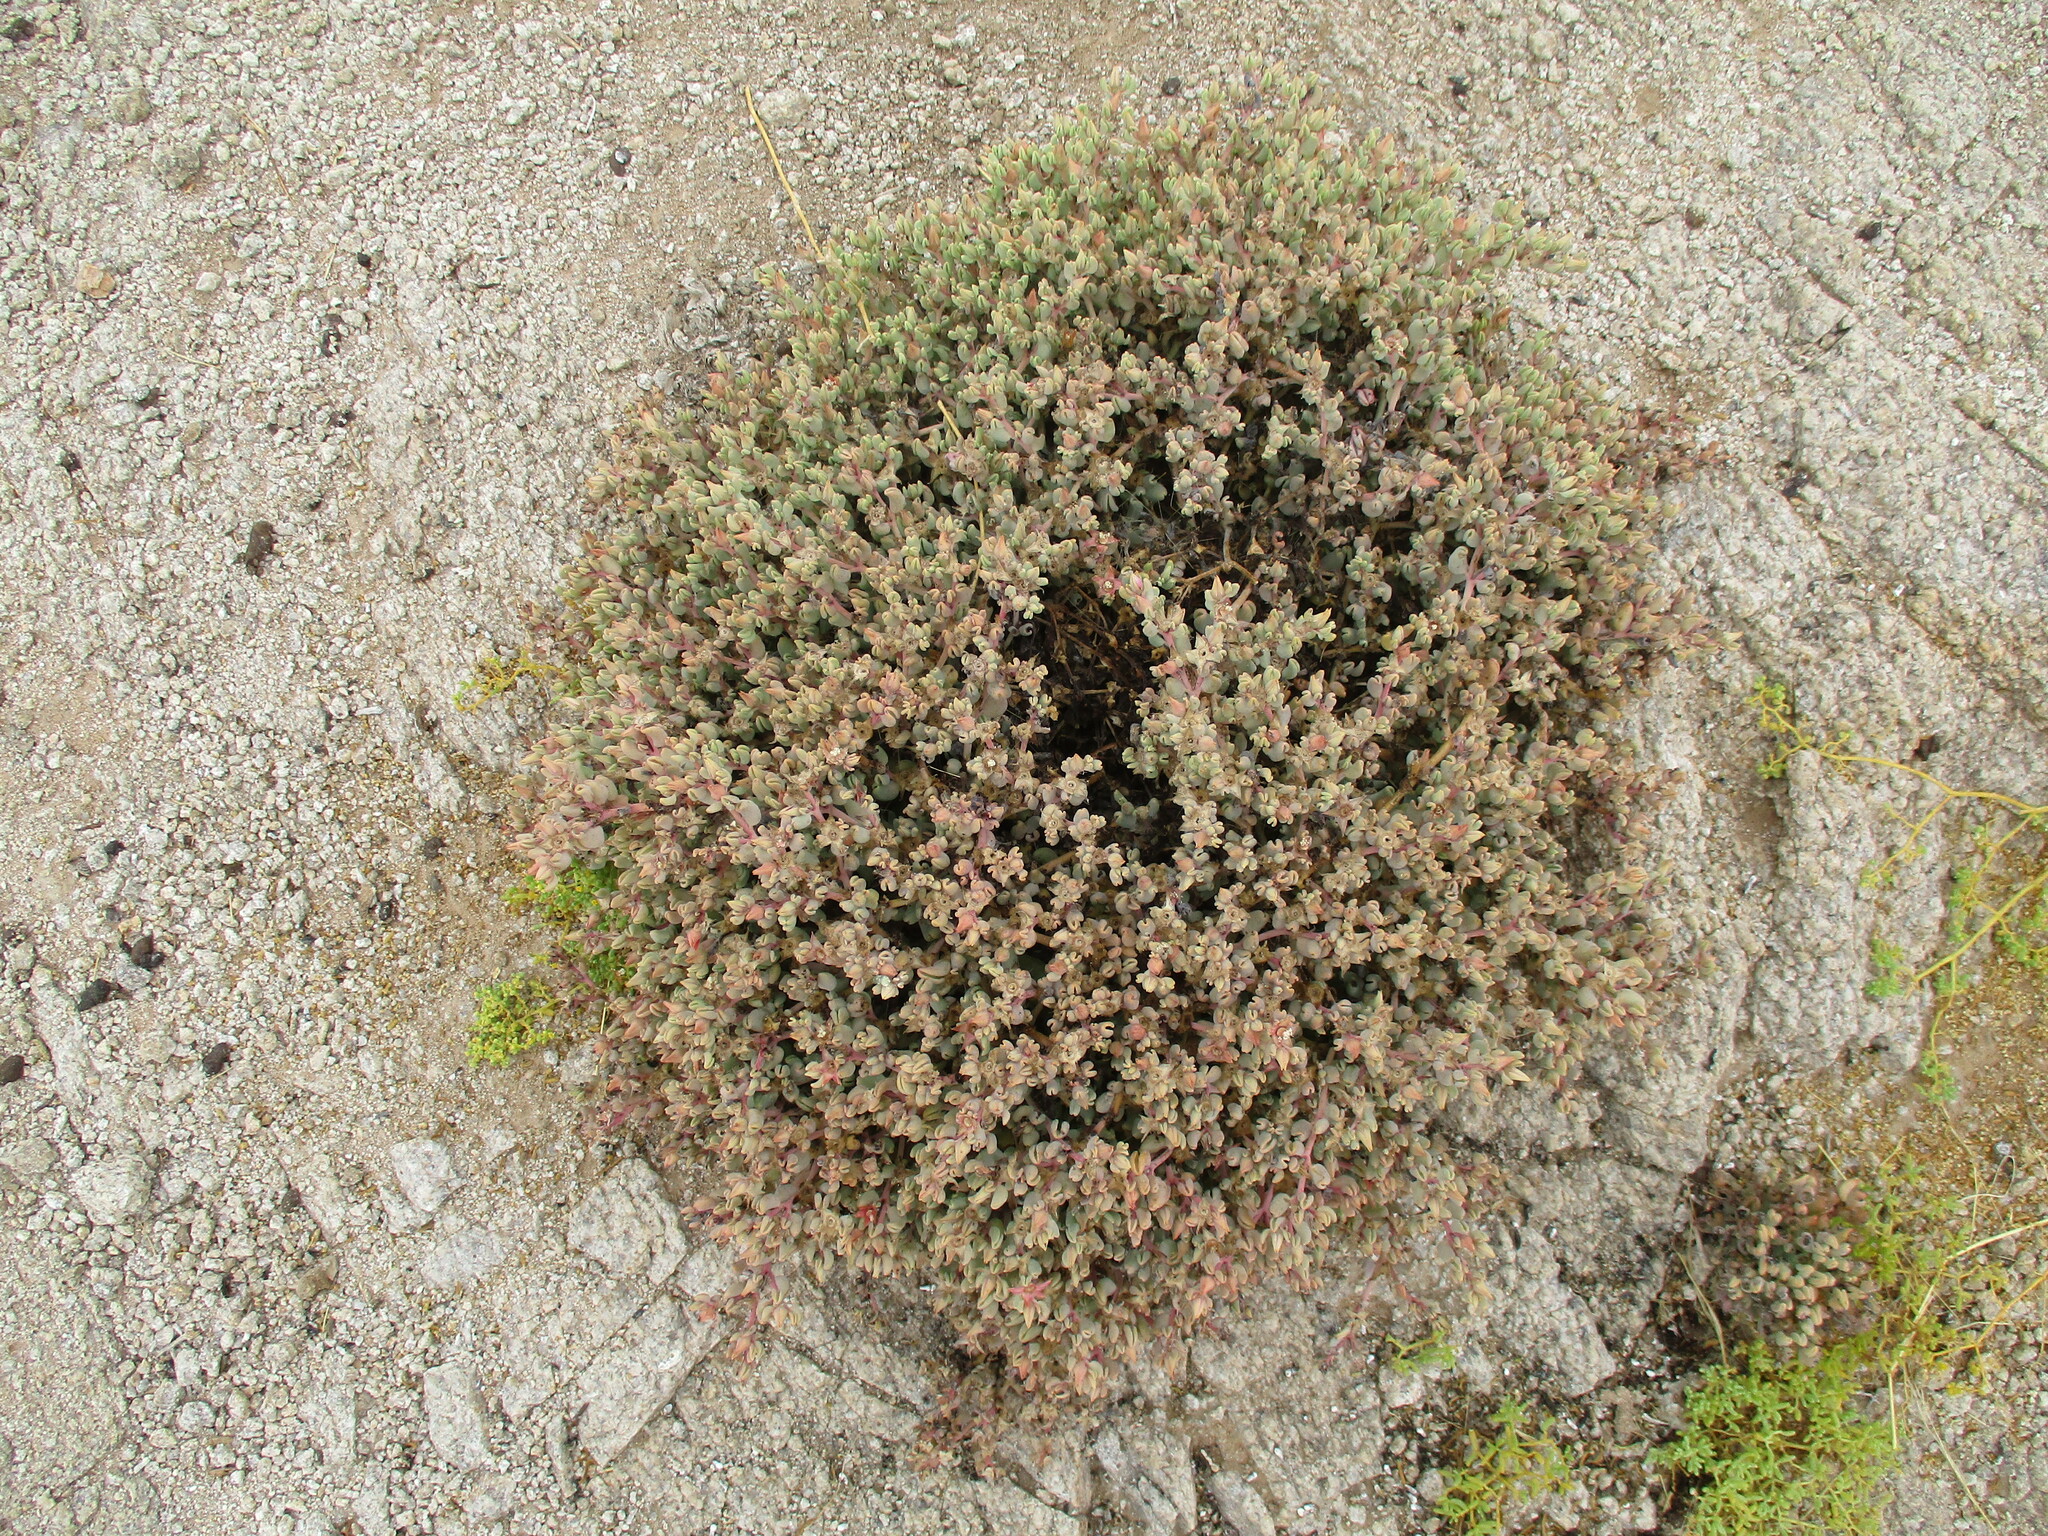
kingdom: Plantae
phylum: Tracheophyta
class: Magnoliopsida
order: Caryophyllales
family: Aizoaceae
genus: Sesuvium
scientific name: Sesuvium sesuvioides
